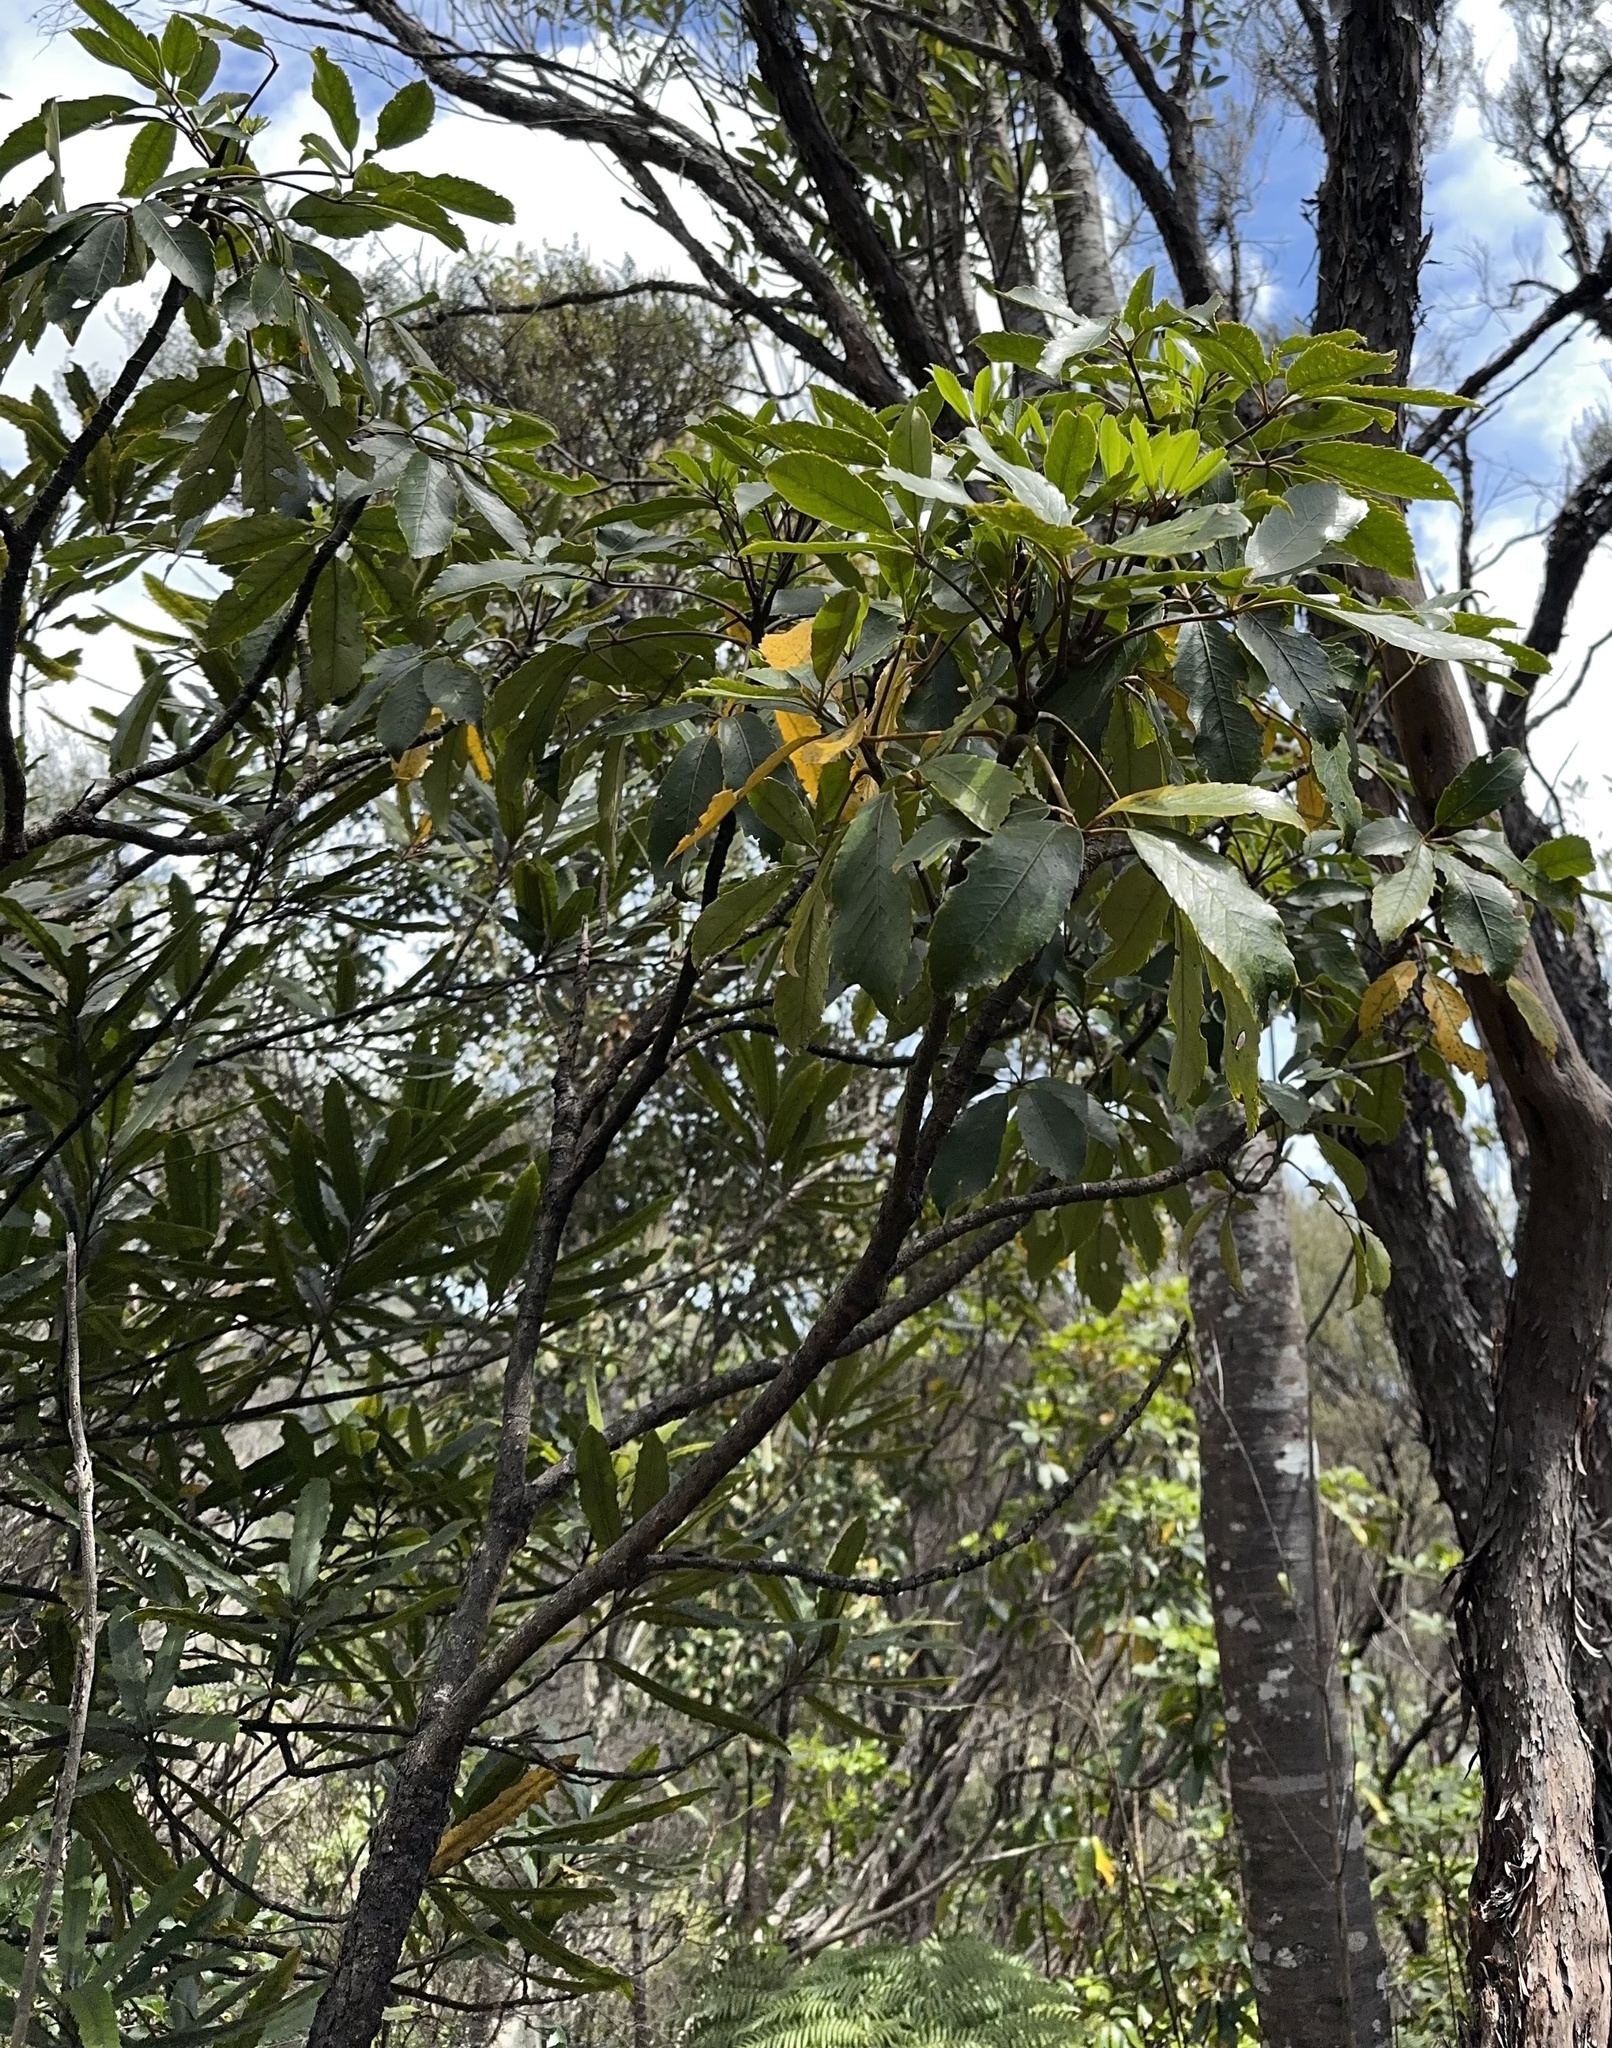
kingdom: Plantae
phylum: Tracheophyta
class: Magnoliopsida
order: Apiales
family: Araliaceae
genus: Neopanax
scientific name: Neopanax arboreus
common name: Five-fingers
